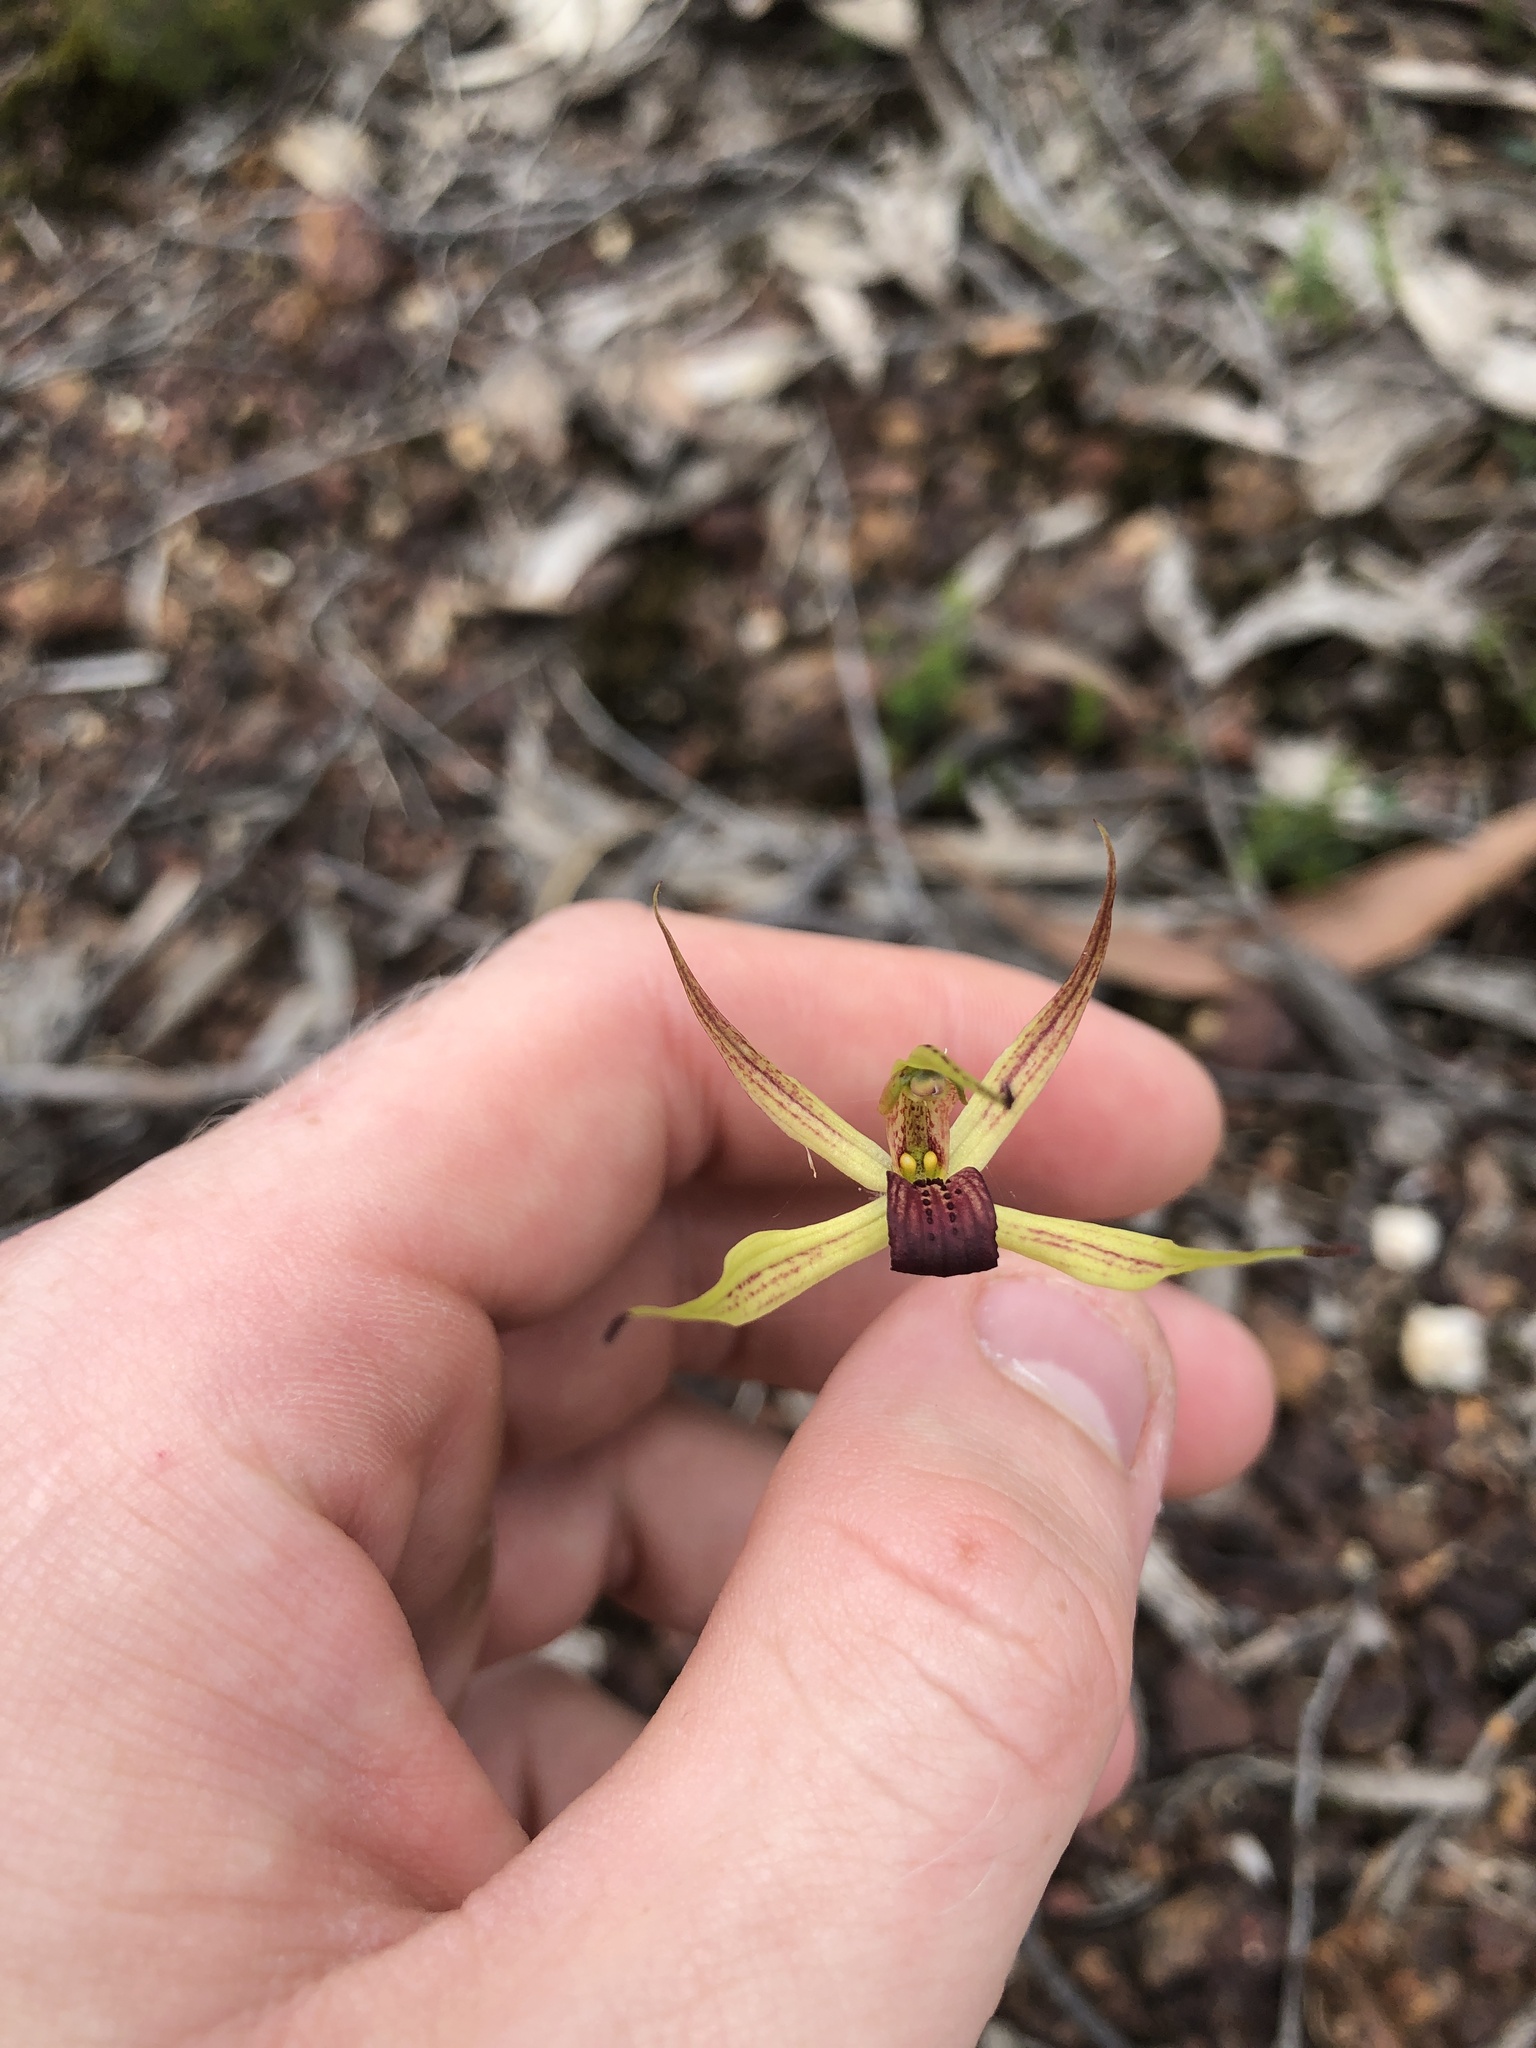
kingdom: Plantae
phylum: Tracheophyta
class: Liliopsida
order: Asparagales
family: Orchidaceae
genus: Caladenia
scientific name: Caladenia leptochila
